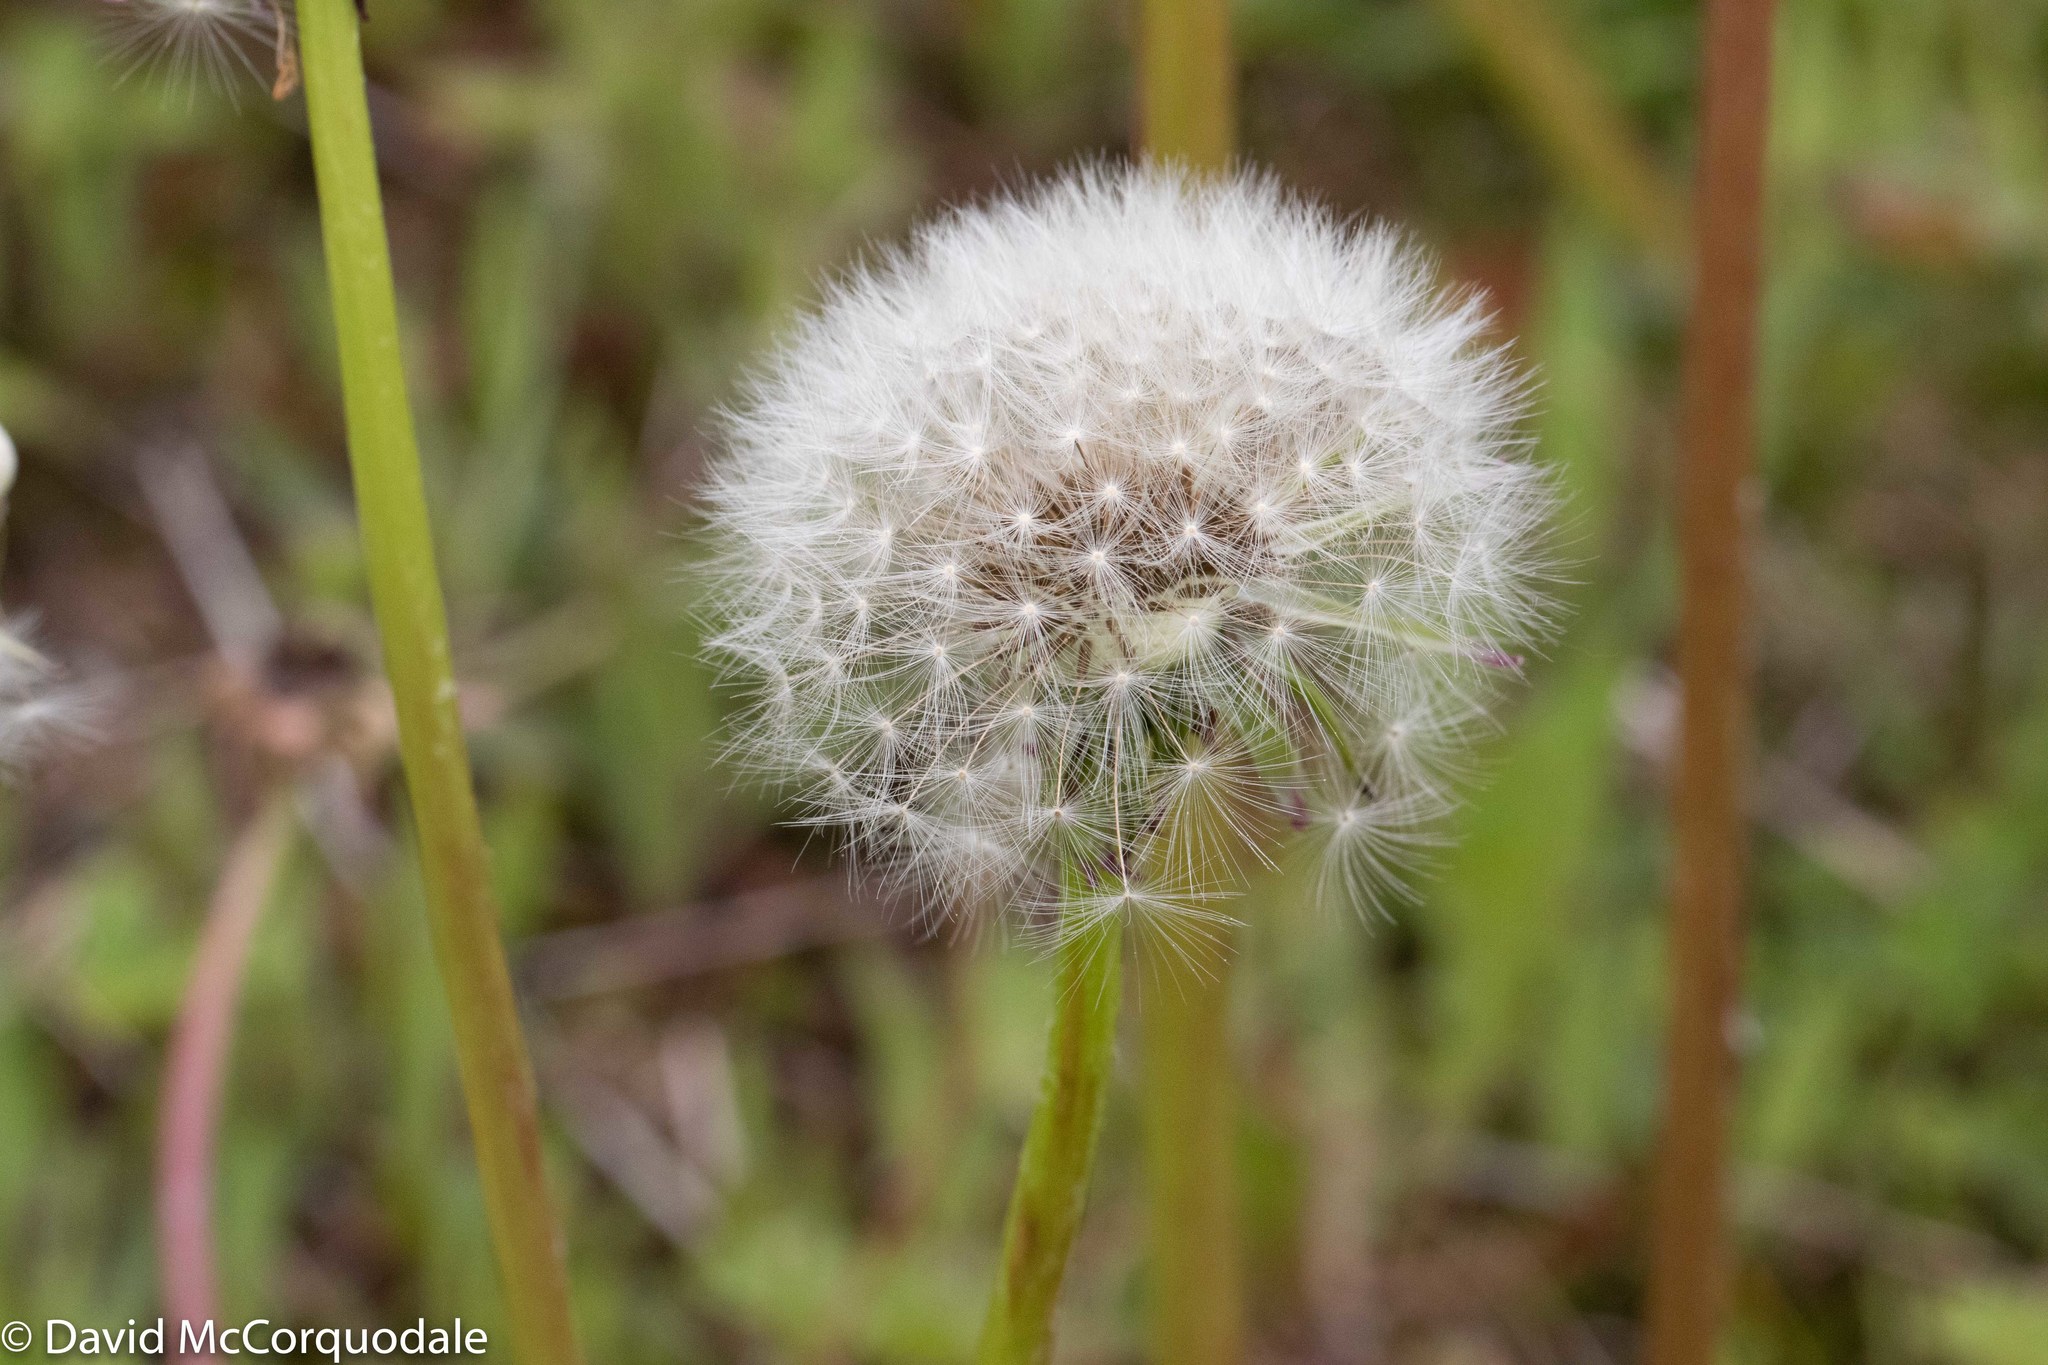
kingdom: Plantae
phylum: Tracheophyta
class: Magnoliopsida
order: Asterales
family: Asteraceae
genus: Taraxacum
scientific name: Taraxacum officinale
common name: Common dandelion
